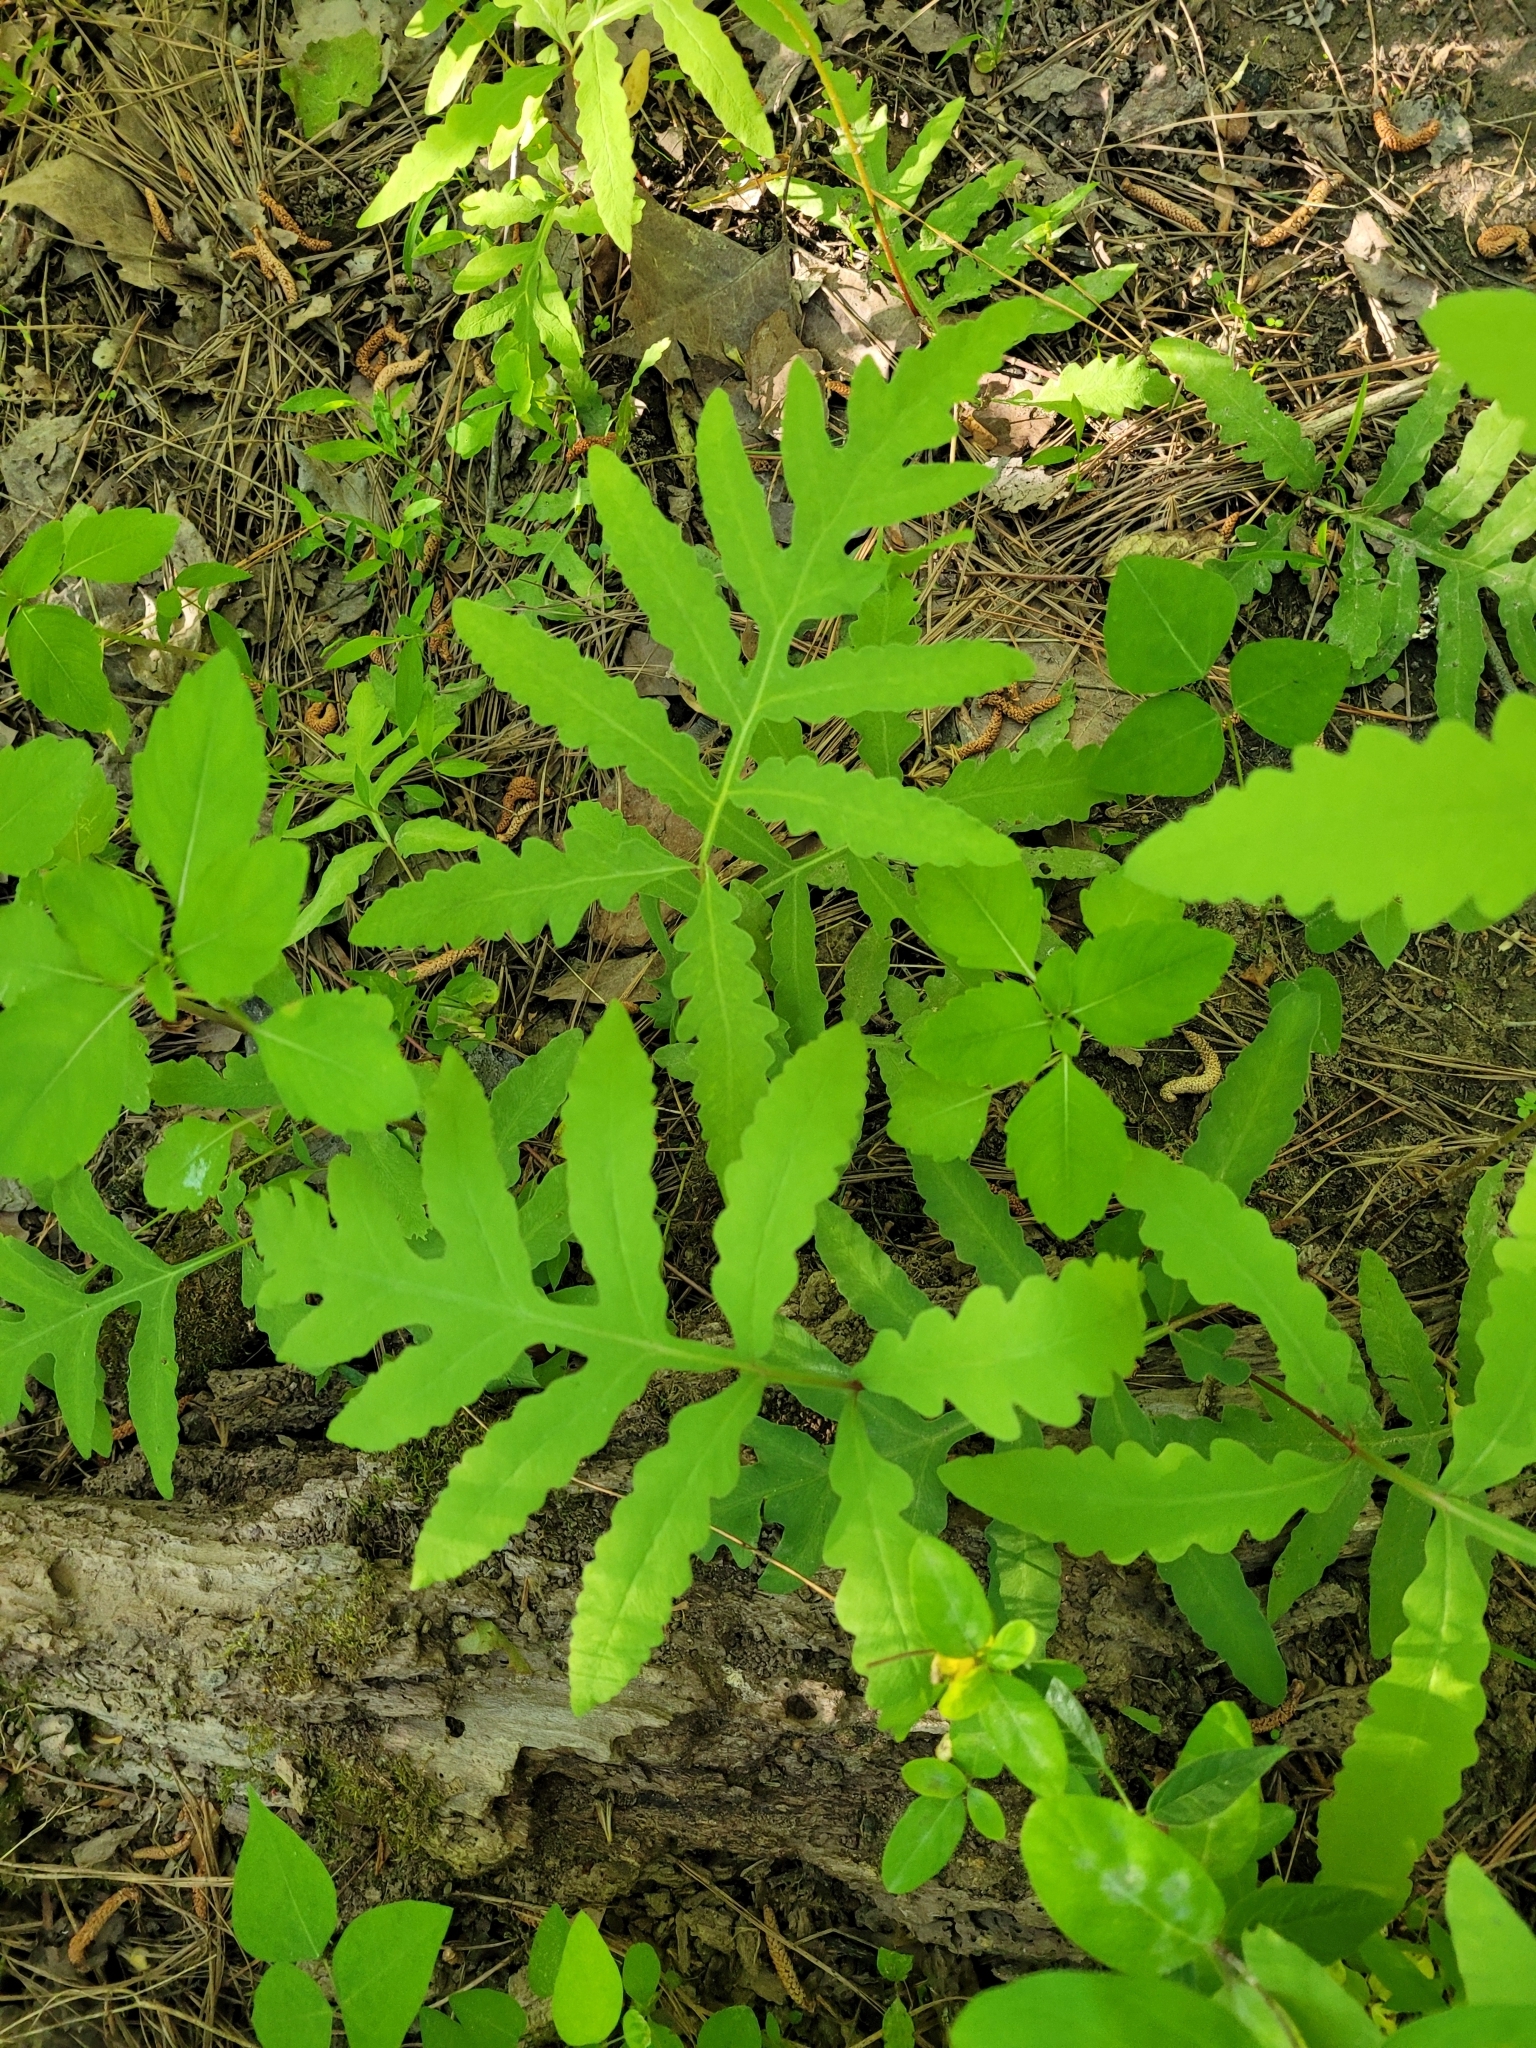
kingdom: Plantae
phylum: Tracheophyta
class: Polypodiopsida
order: Polypodiales
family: Onocleaceae
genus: Onoclea
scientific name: Onoclea sensibilis
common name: Sensitive fern
